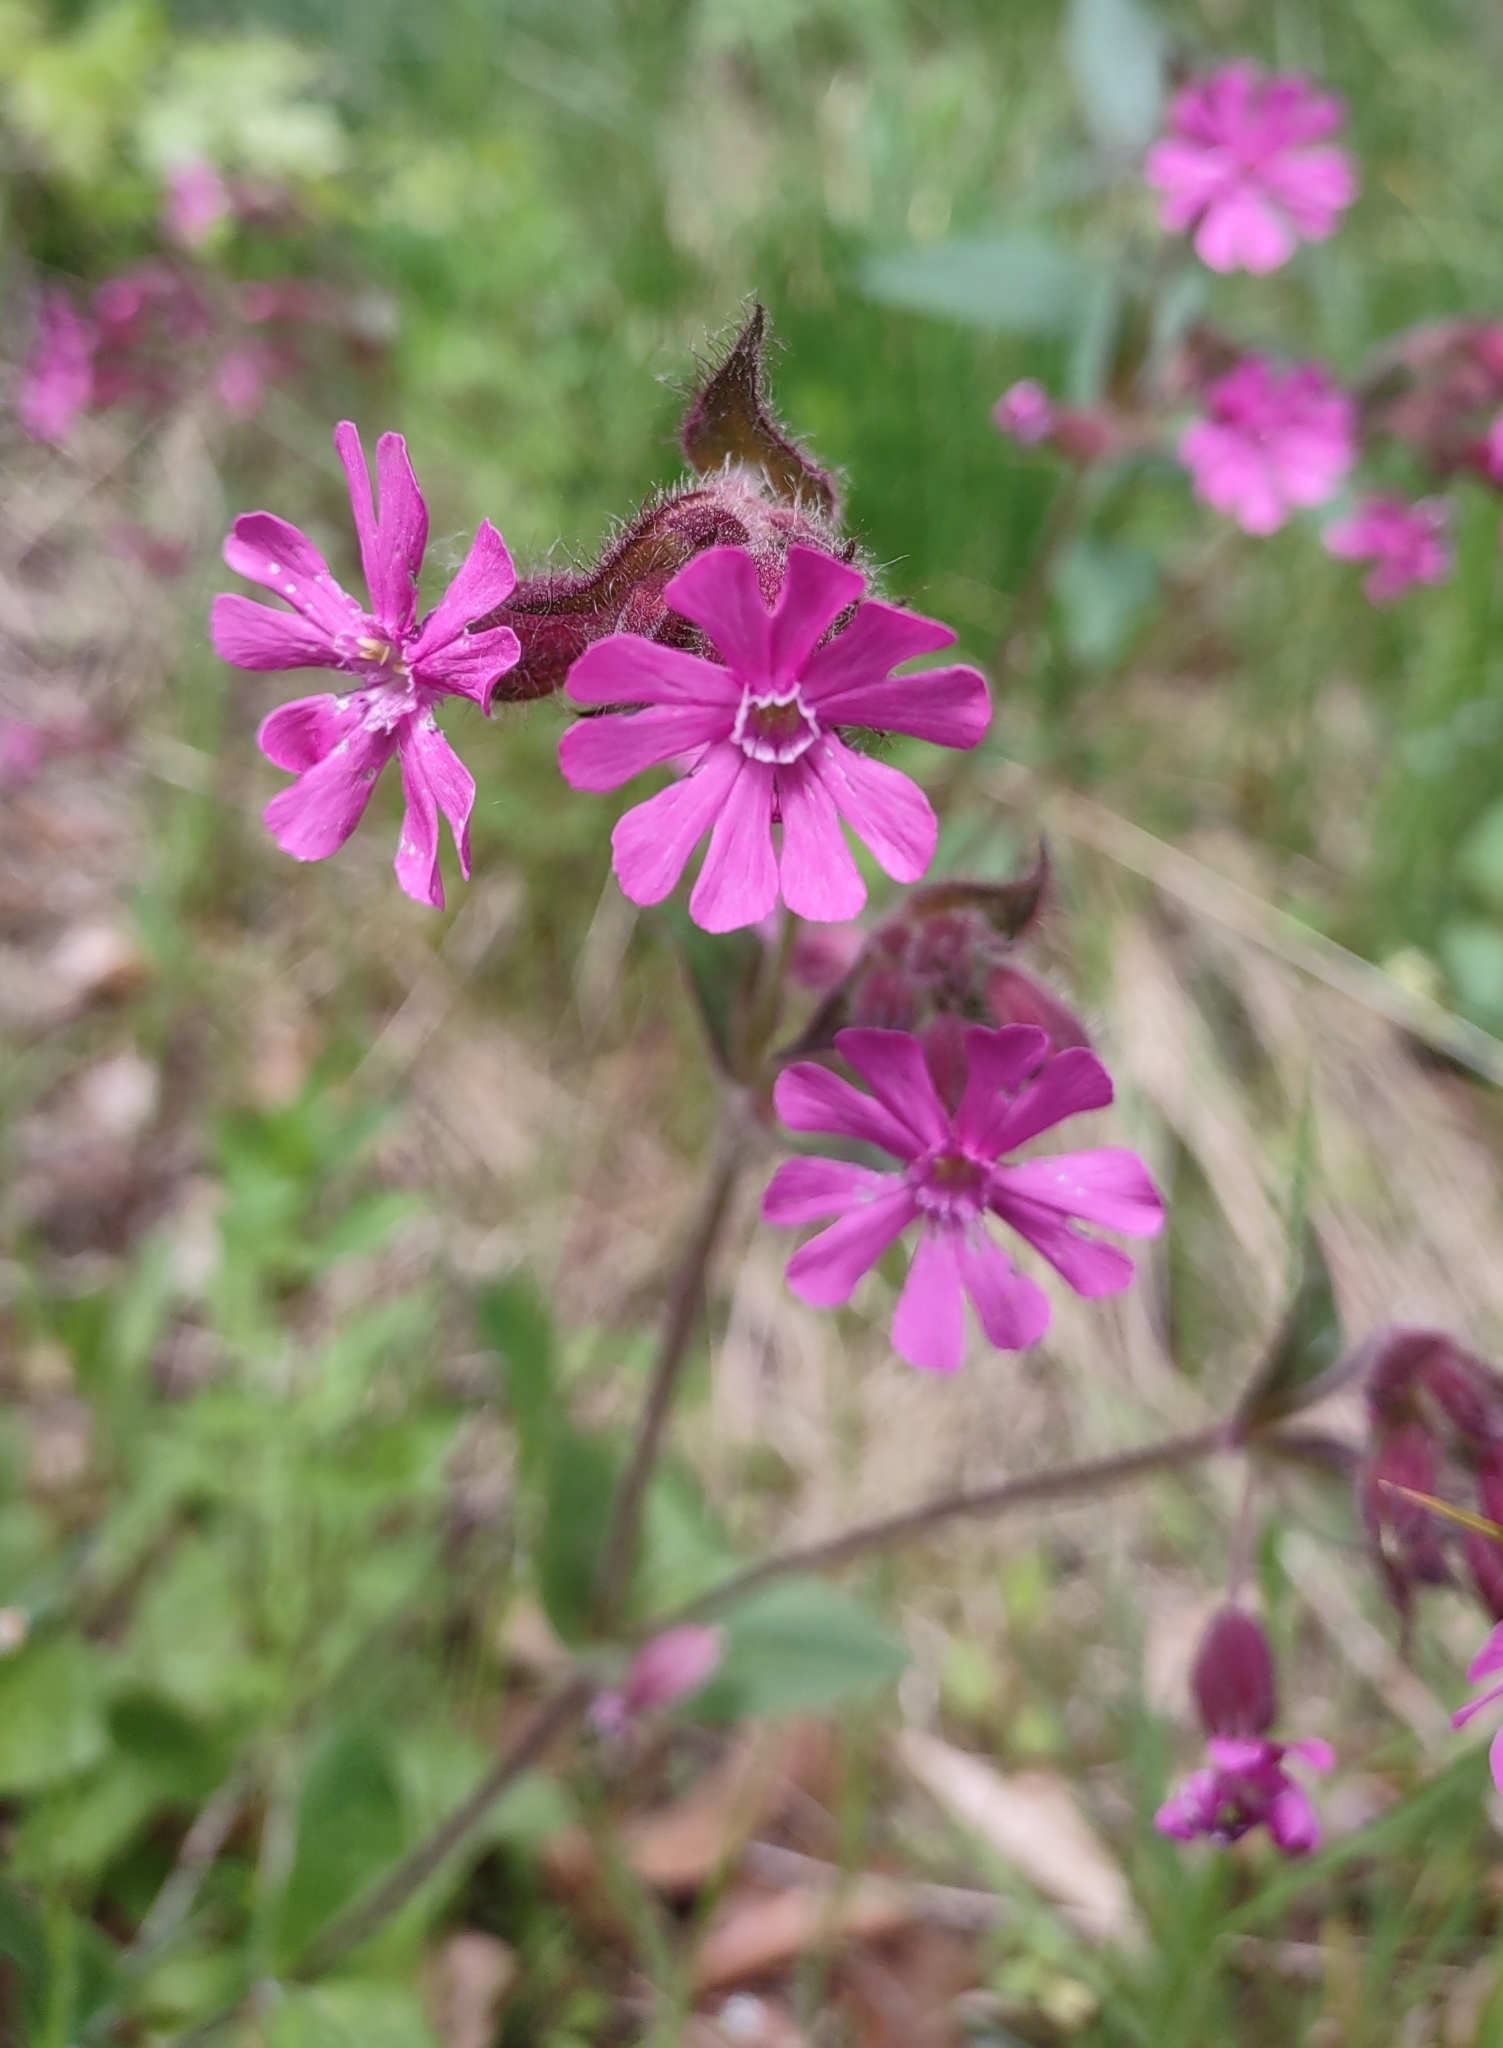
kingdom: Plantae
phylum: Tracheophyta
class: Magnoliopsida
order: Caryophyllales
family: Caryophyllaceae
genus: Silene
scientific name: Silene dioica
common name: Red campion
